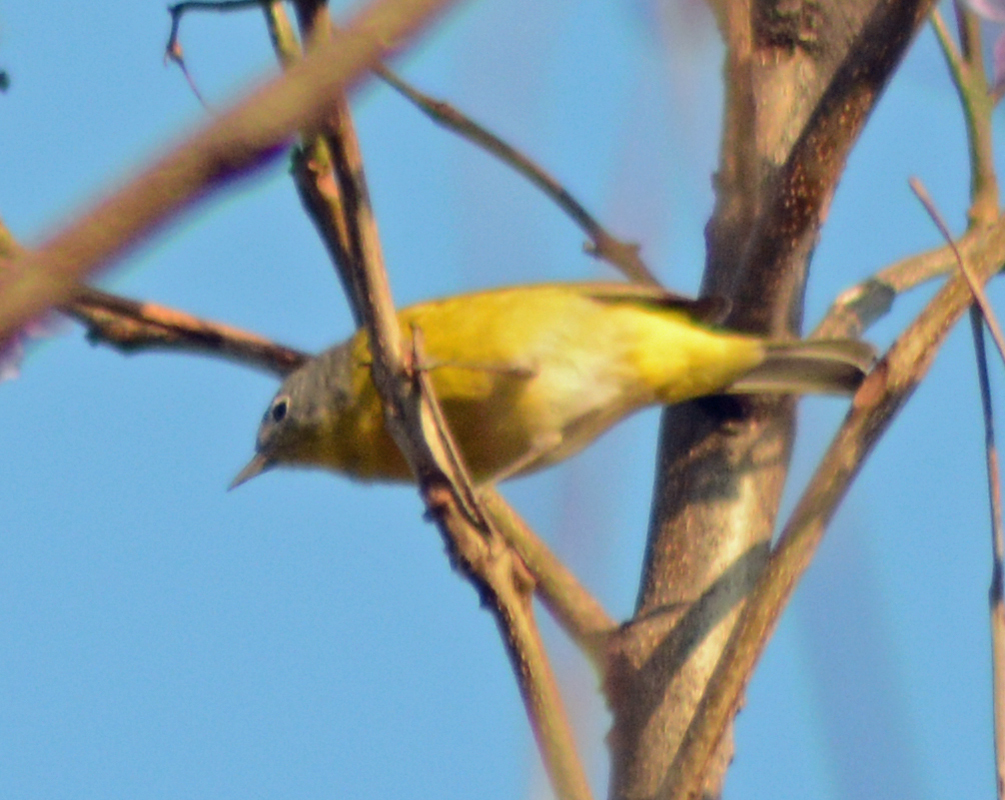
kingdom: Animalia
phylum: Chordata
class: Aves
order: Passeriformes
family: Parulidae
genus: Leiothlypis
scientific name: Leiothlypis ruficapilla
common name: Nashville warbler
